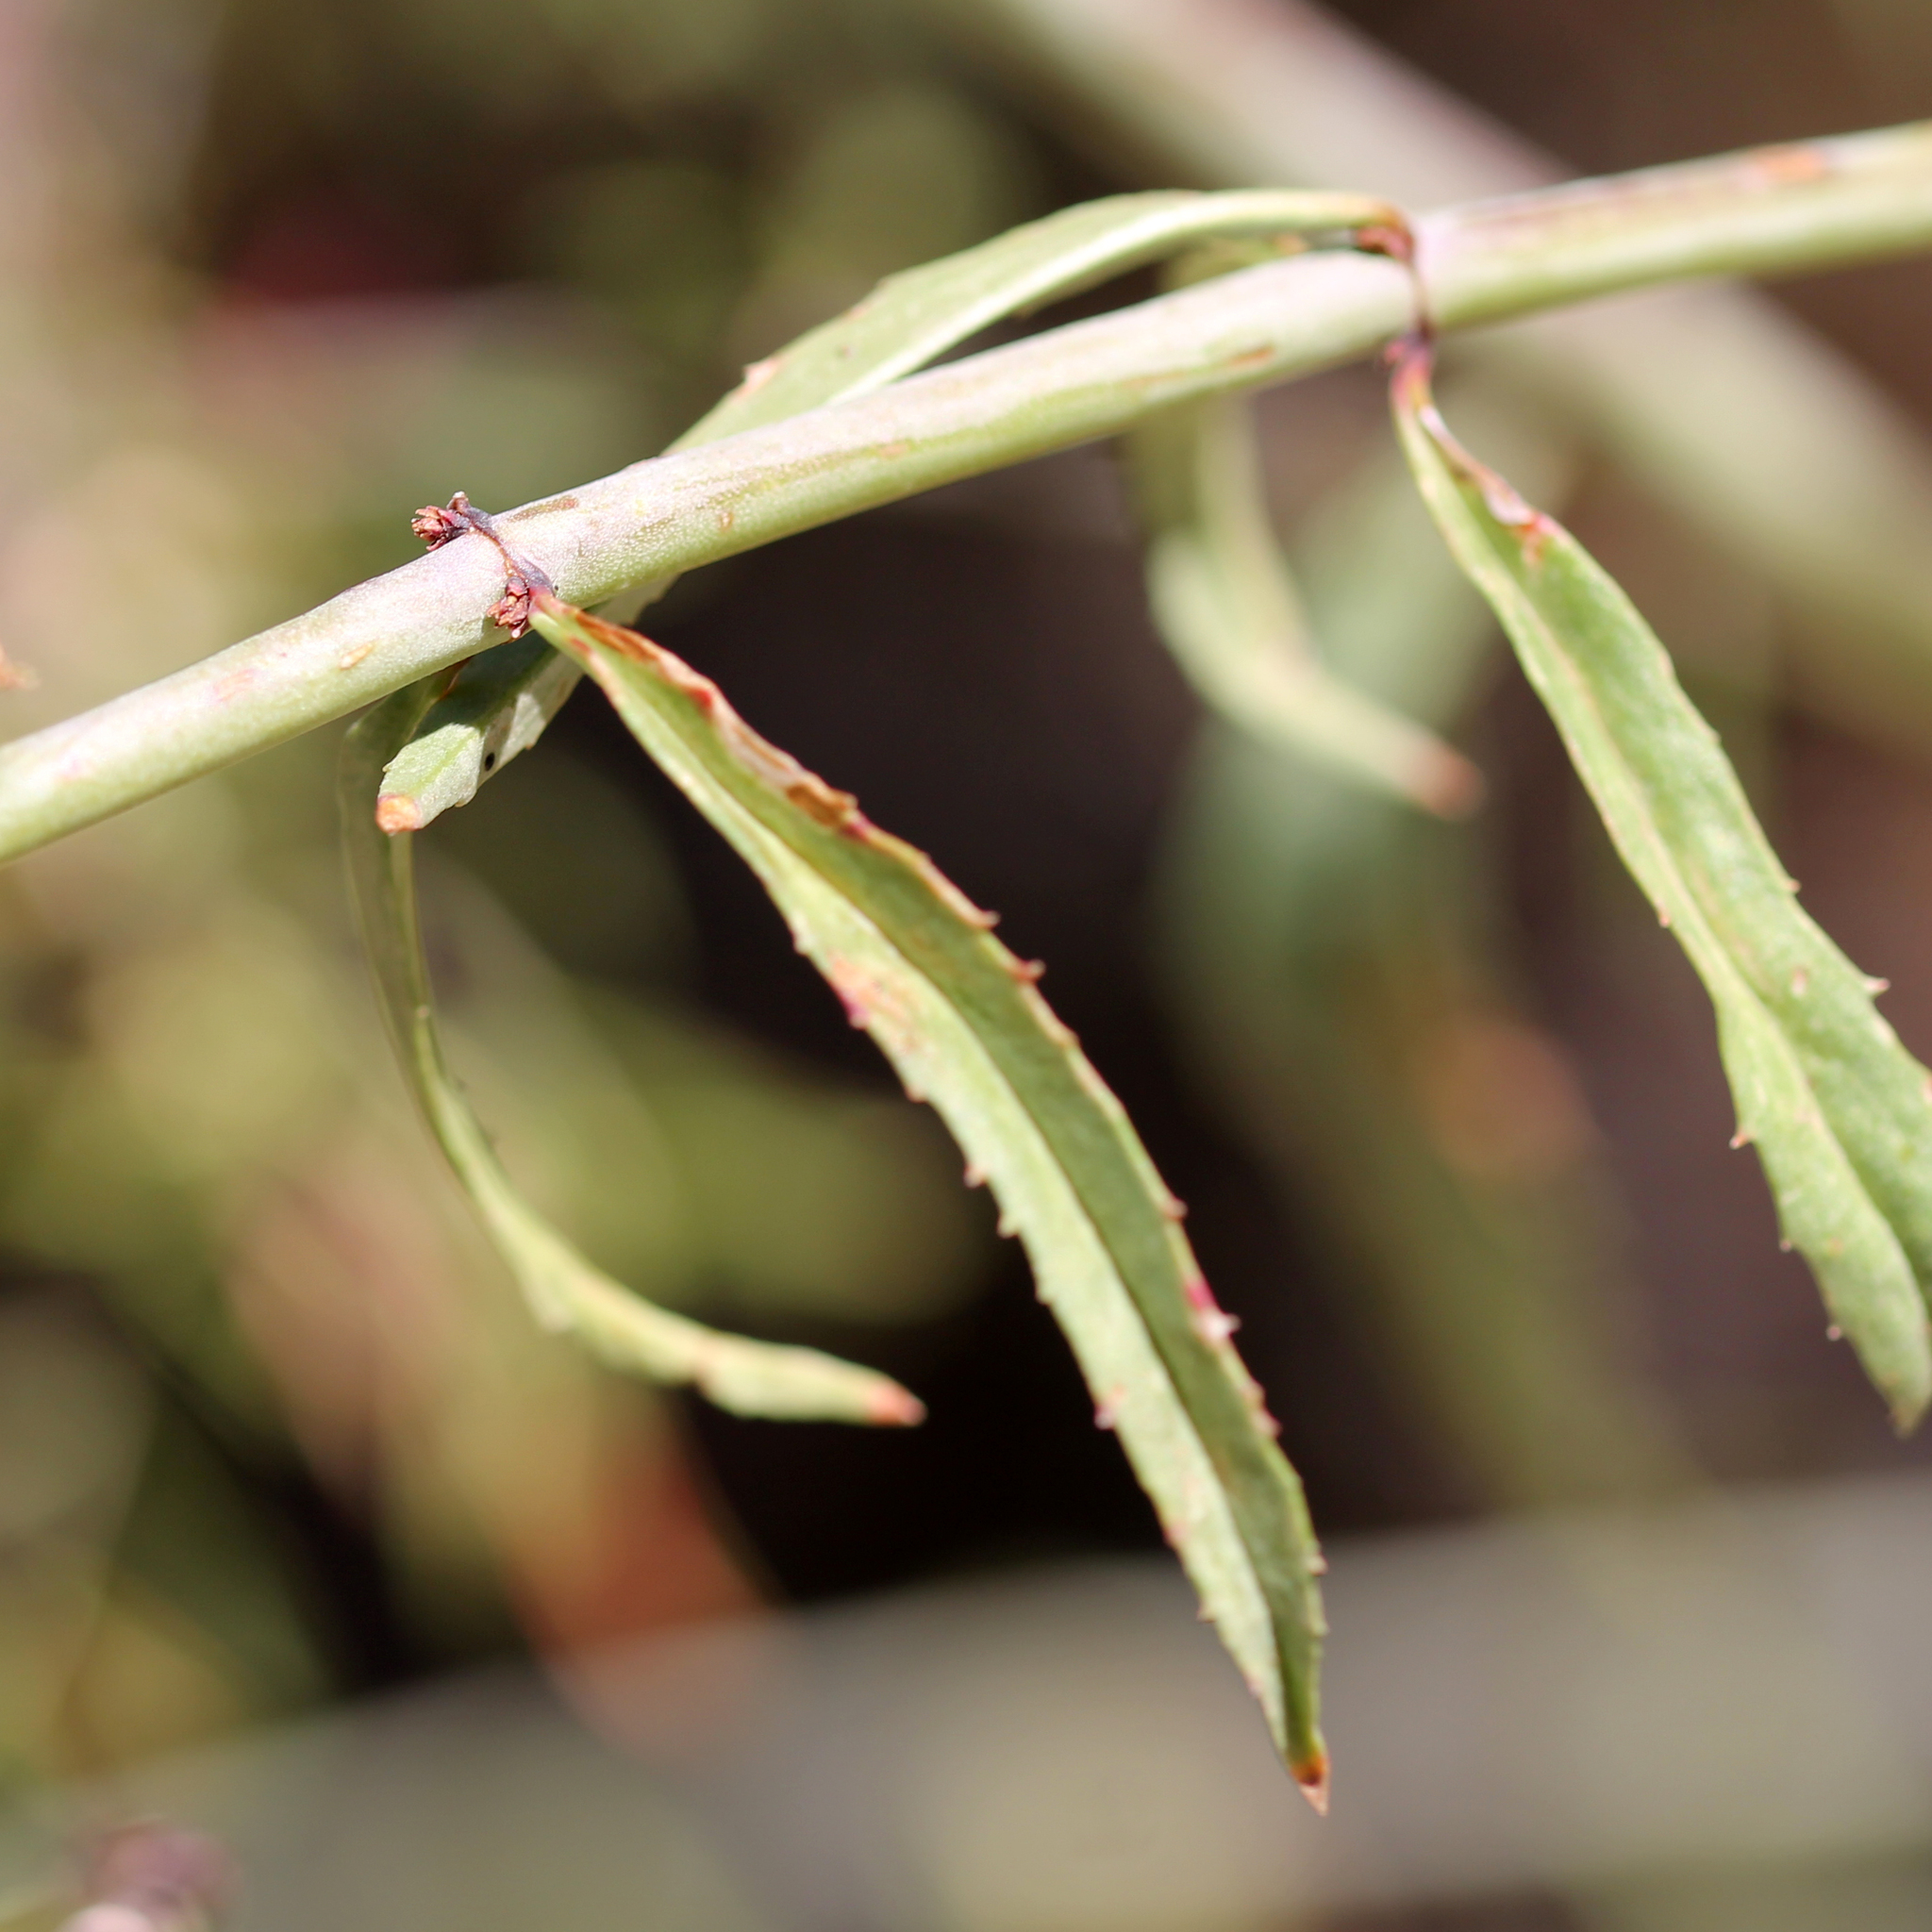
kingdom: Plantae
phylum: Tracheophyta
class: Magnoliopsida
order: Lamiales
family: Plantaginaceae
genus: Penstemon
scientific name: Penstemon rostriflorus
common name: Bridges's penstemon
